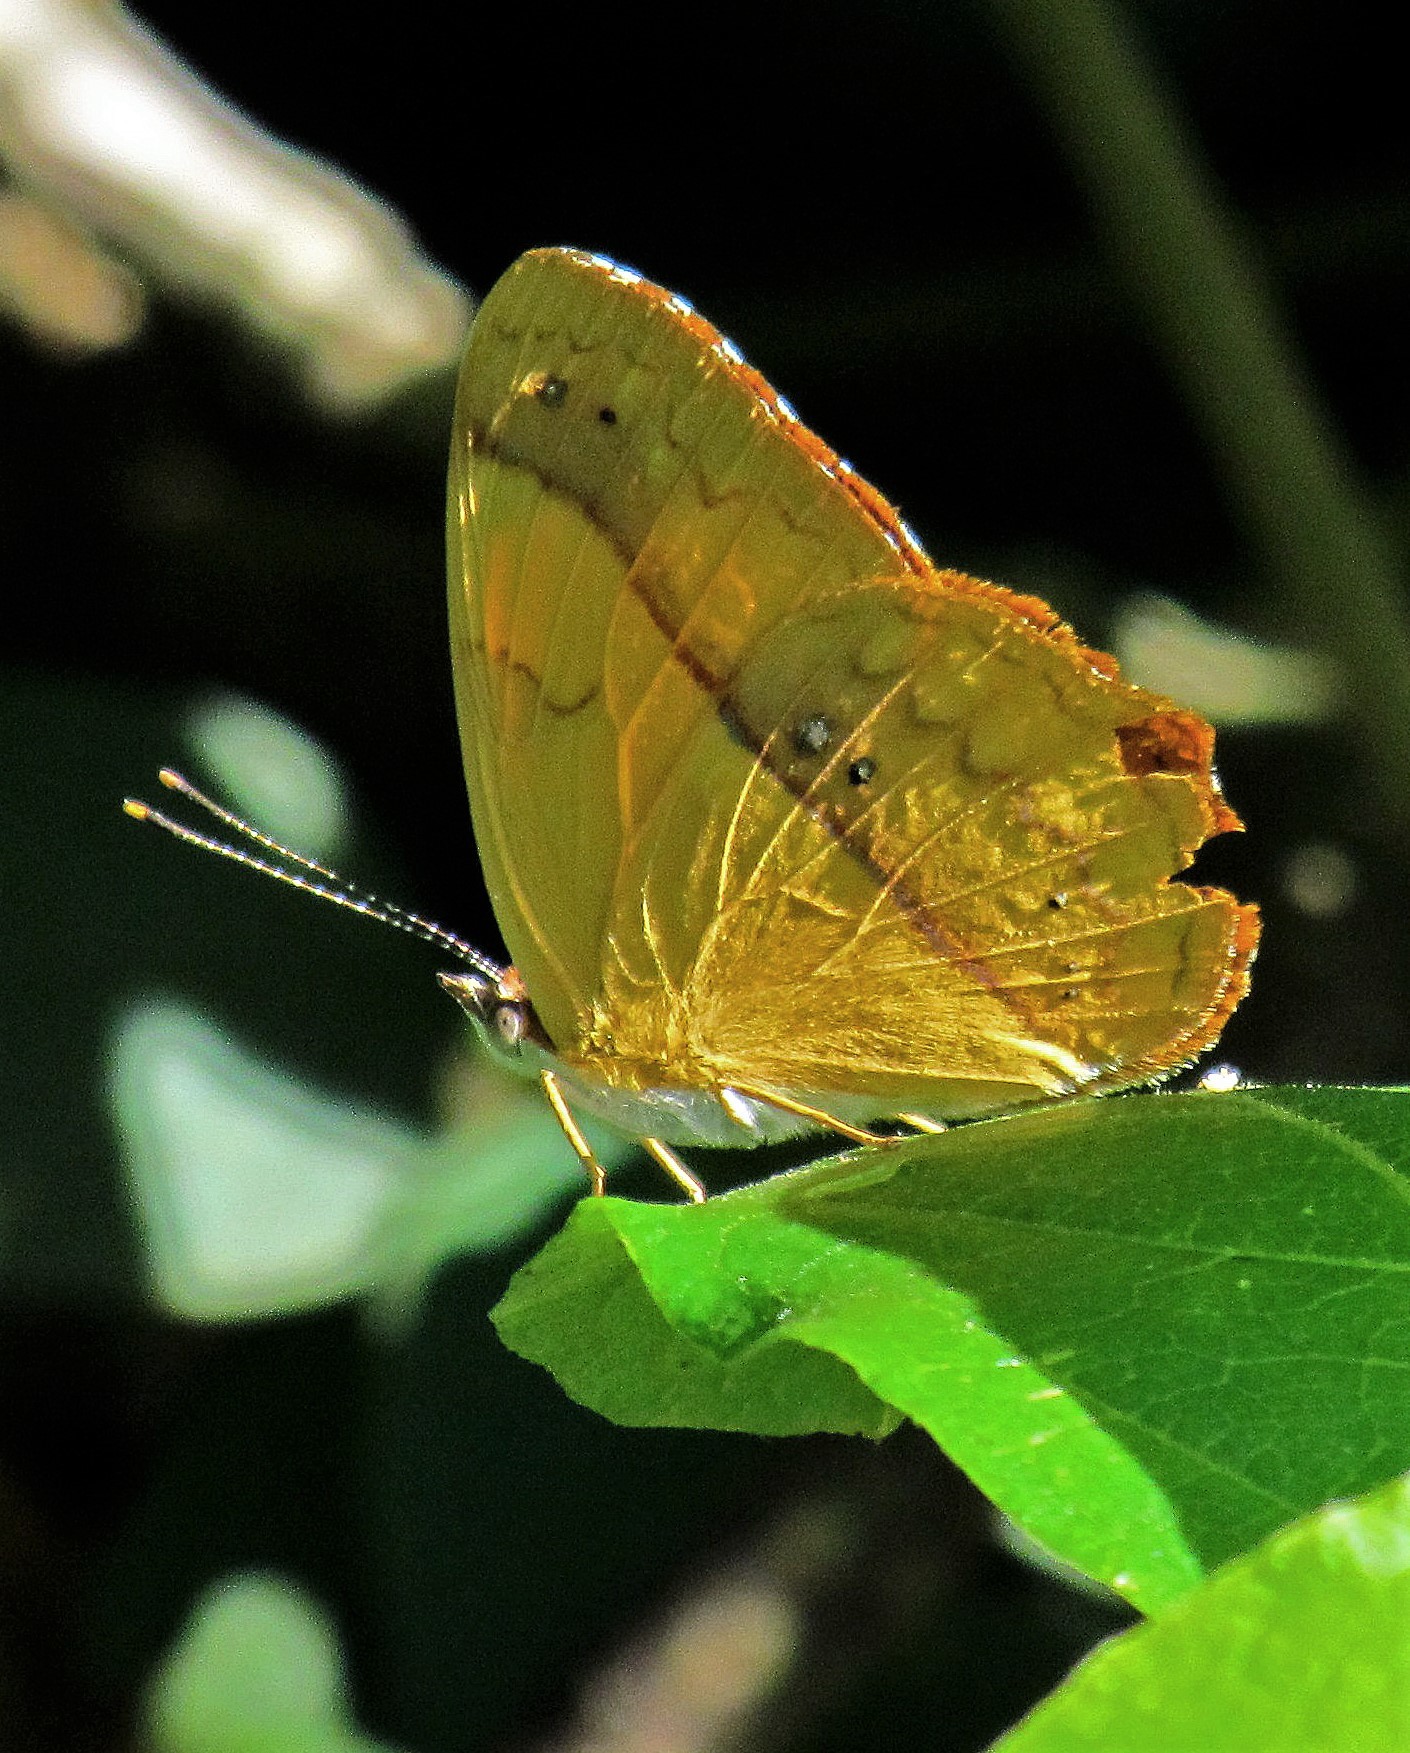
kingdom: Animalia
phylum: Arthropoda
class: Insecta
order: Lepidoptera
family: Nymphalidae
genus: Nica
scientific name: Nica flavilla
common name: Mandarin nica
